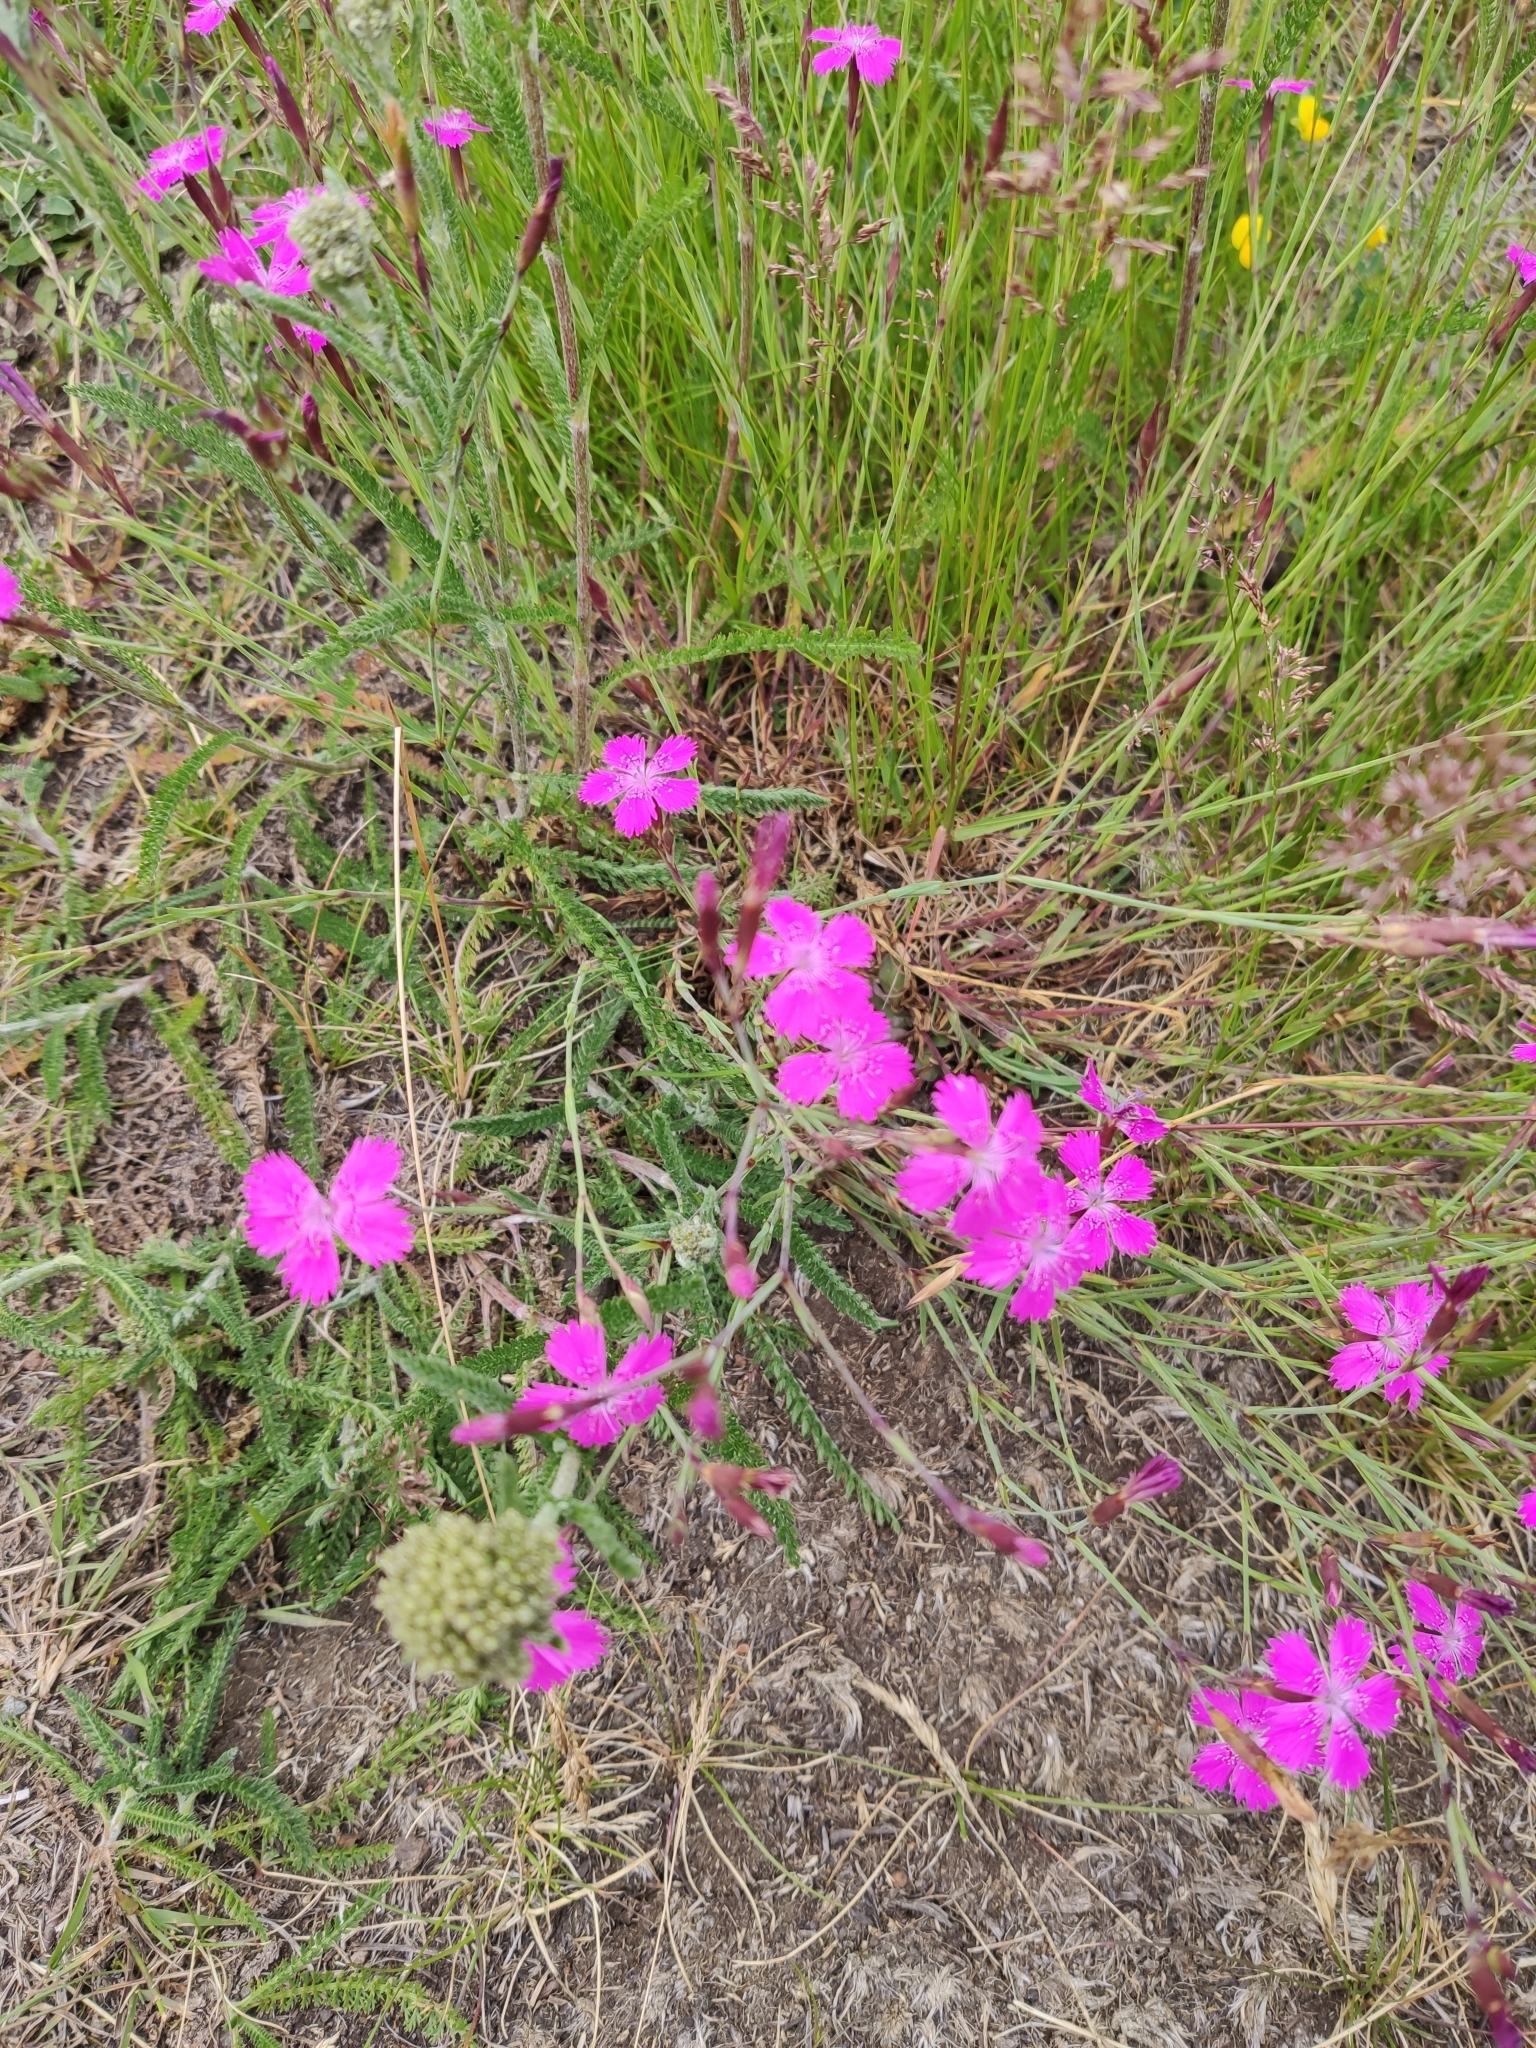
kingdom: Plantae
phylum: Tracheophyta
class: Magnoliopsida
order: Caryophyllales
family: Caryophyllaceae
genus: Dianthus
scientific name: Dianthus deltoides
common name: Maiden pink
